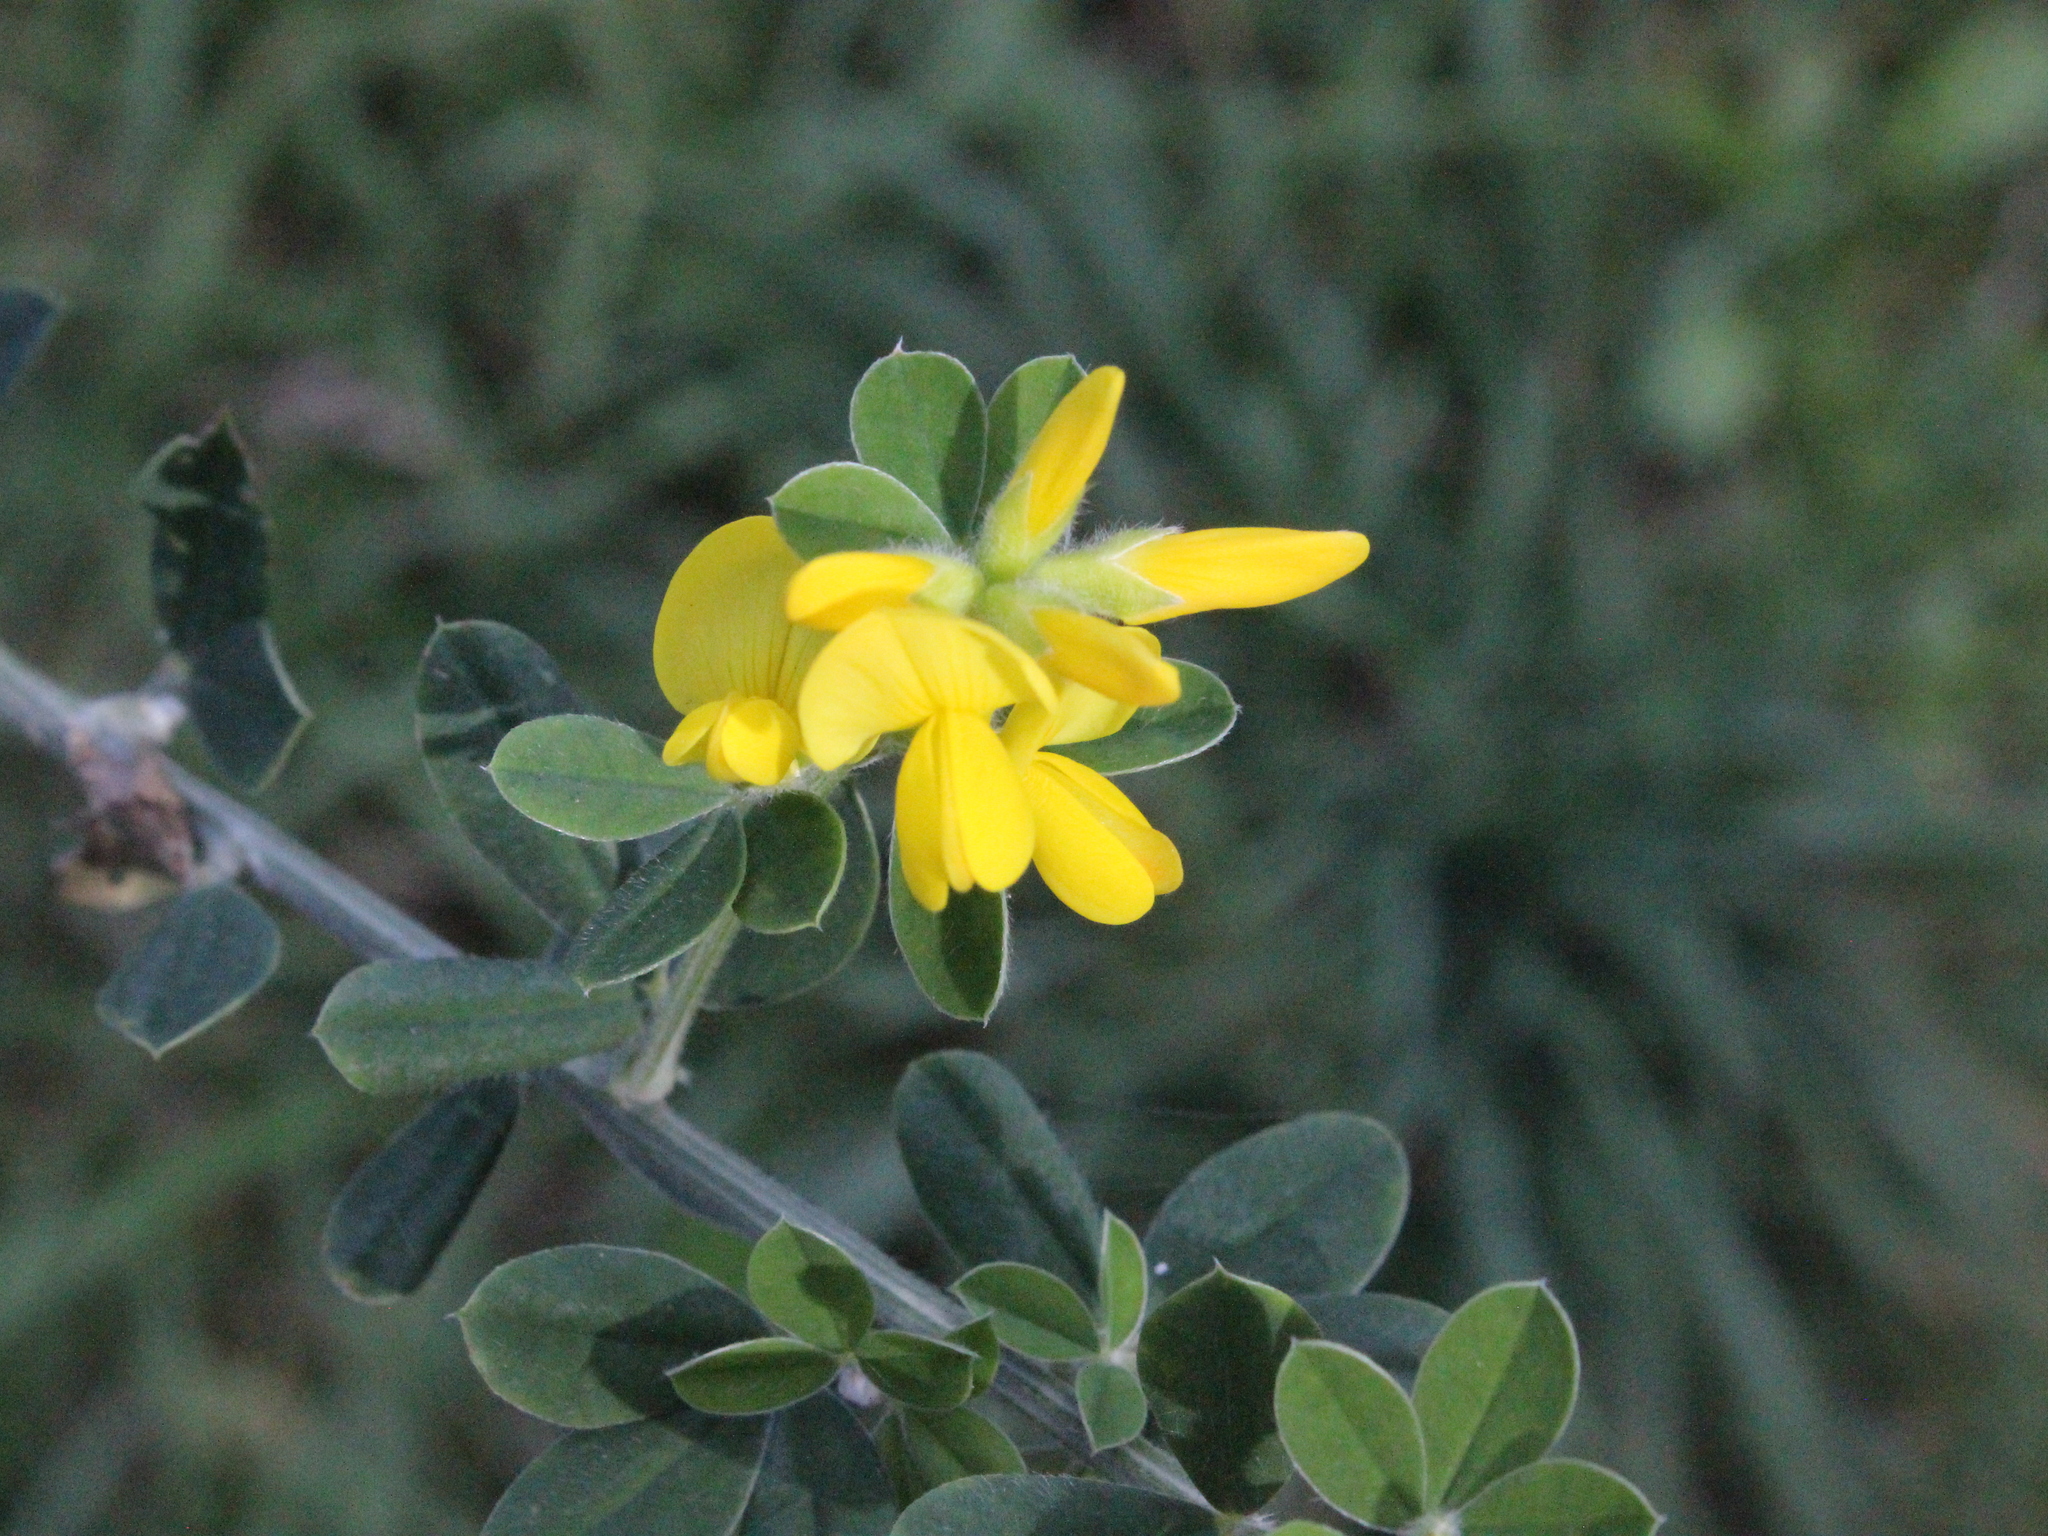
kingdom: Plantae
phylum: Tracheophyta
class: Magnoliopsida
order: Fabales
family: Fabaceae
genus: Genista
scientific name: Genista monspessulana
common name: Montpellier broom
